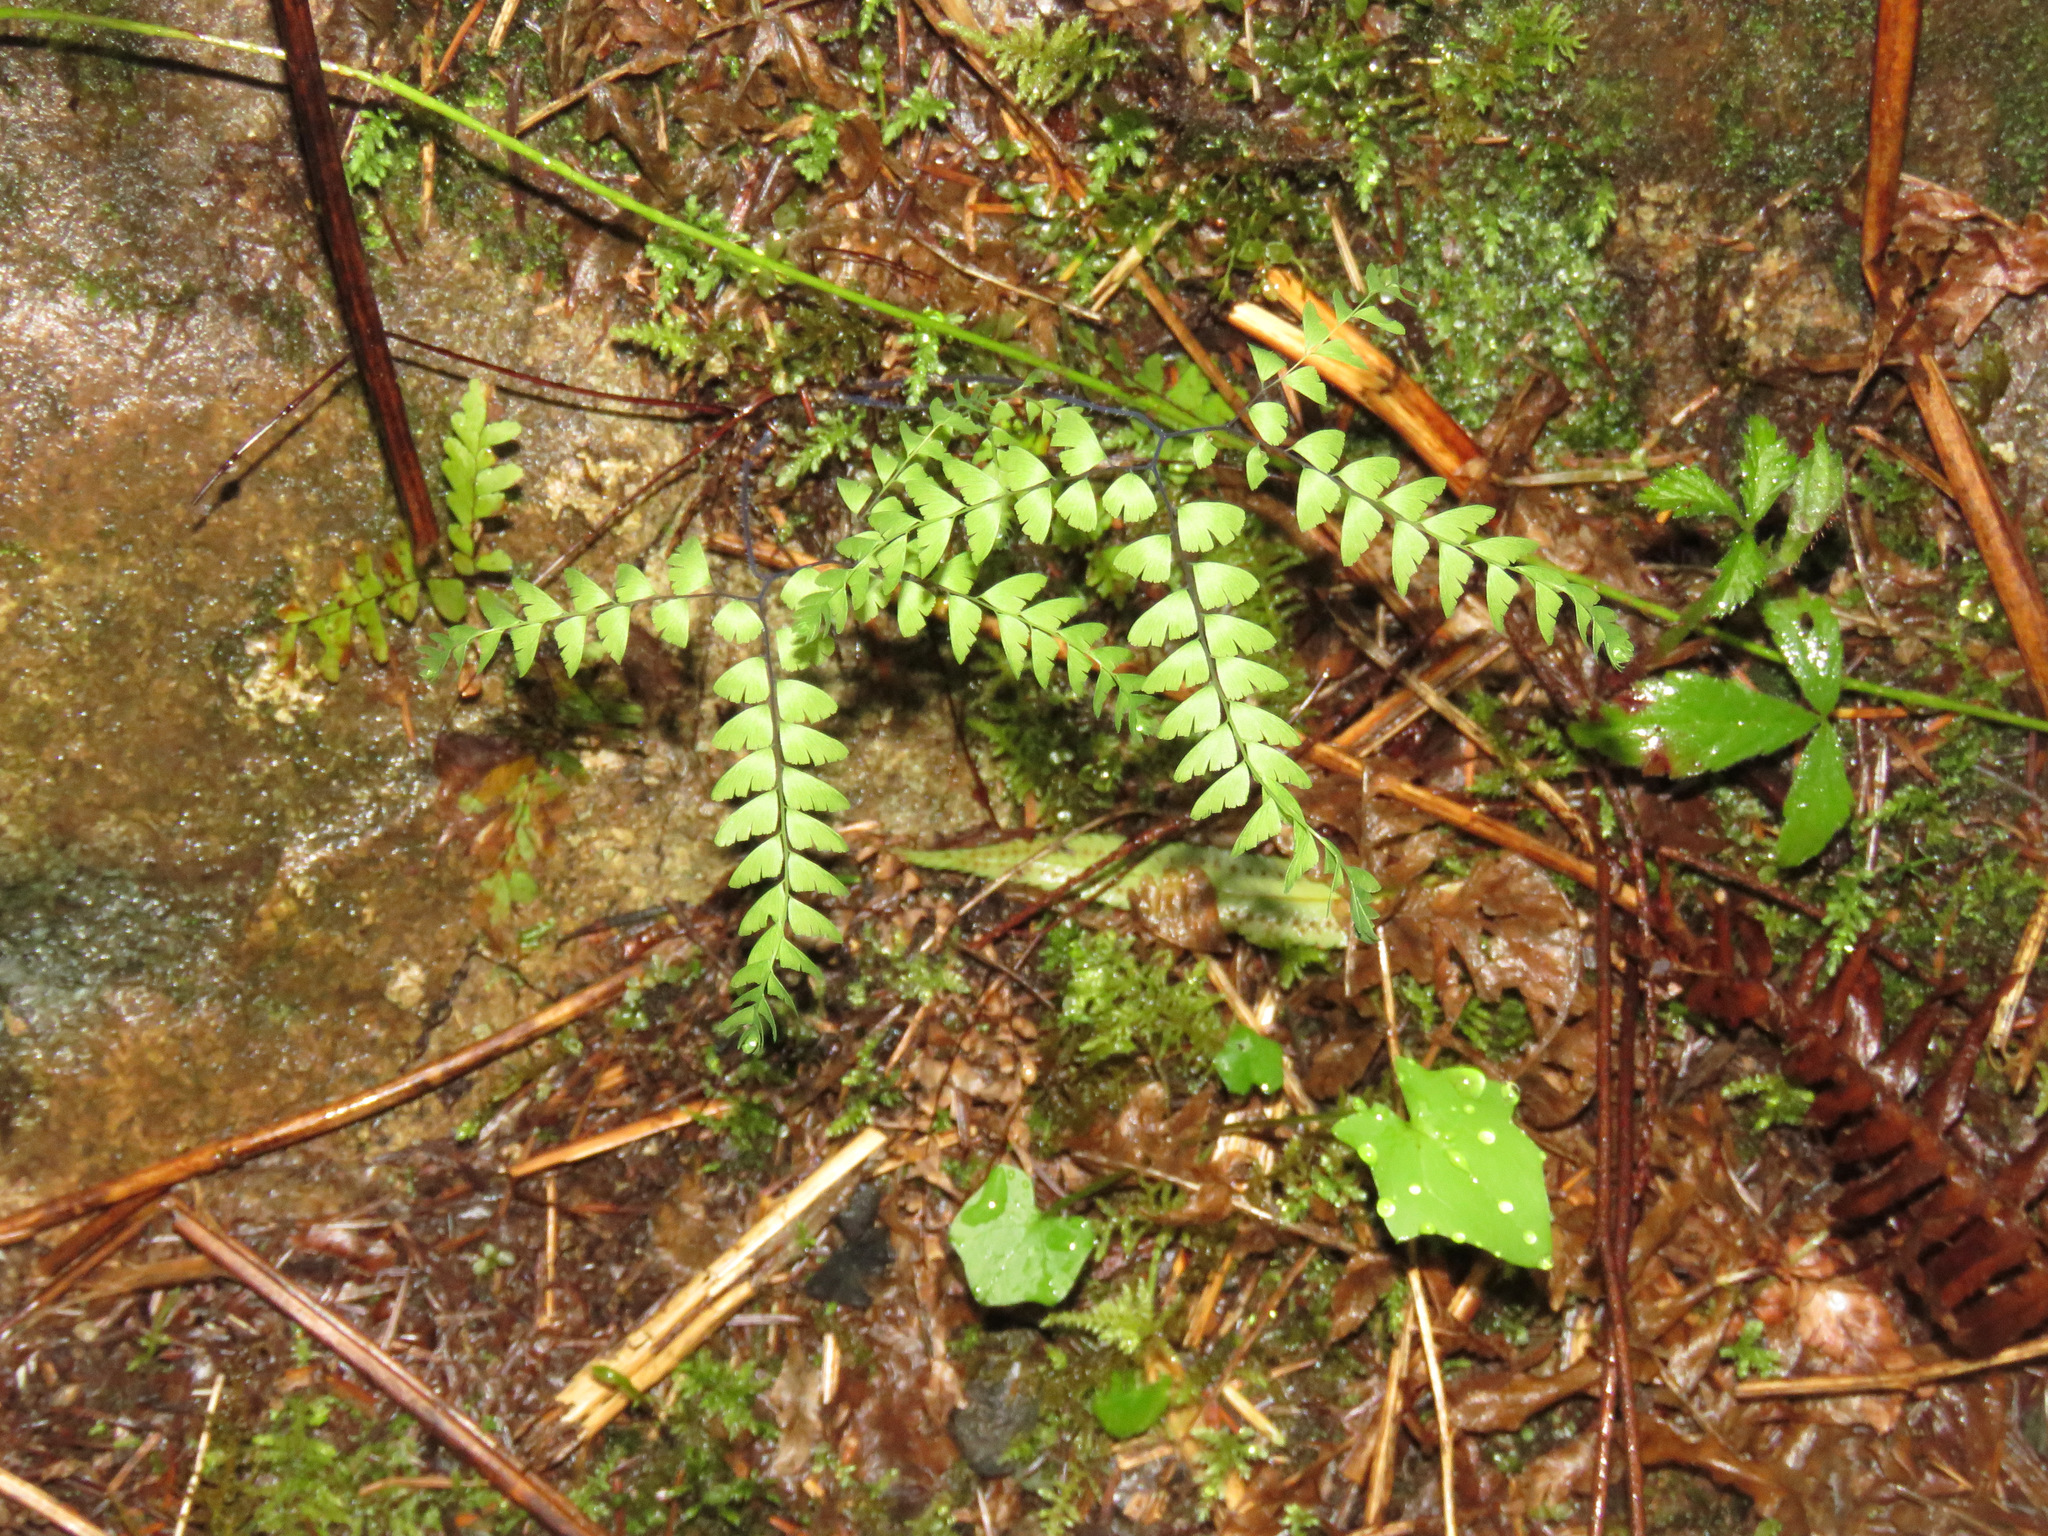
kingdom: Plantae
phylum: Tracheophyta
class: Polypodiopsida
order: Polypodiales
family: Pteridaceae
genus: Adiantum
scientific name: Adiantum aleuticum
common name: Aleutian maidenhair fern
